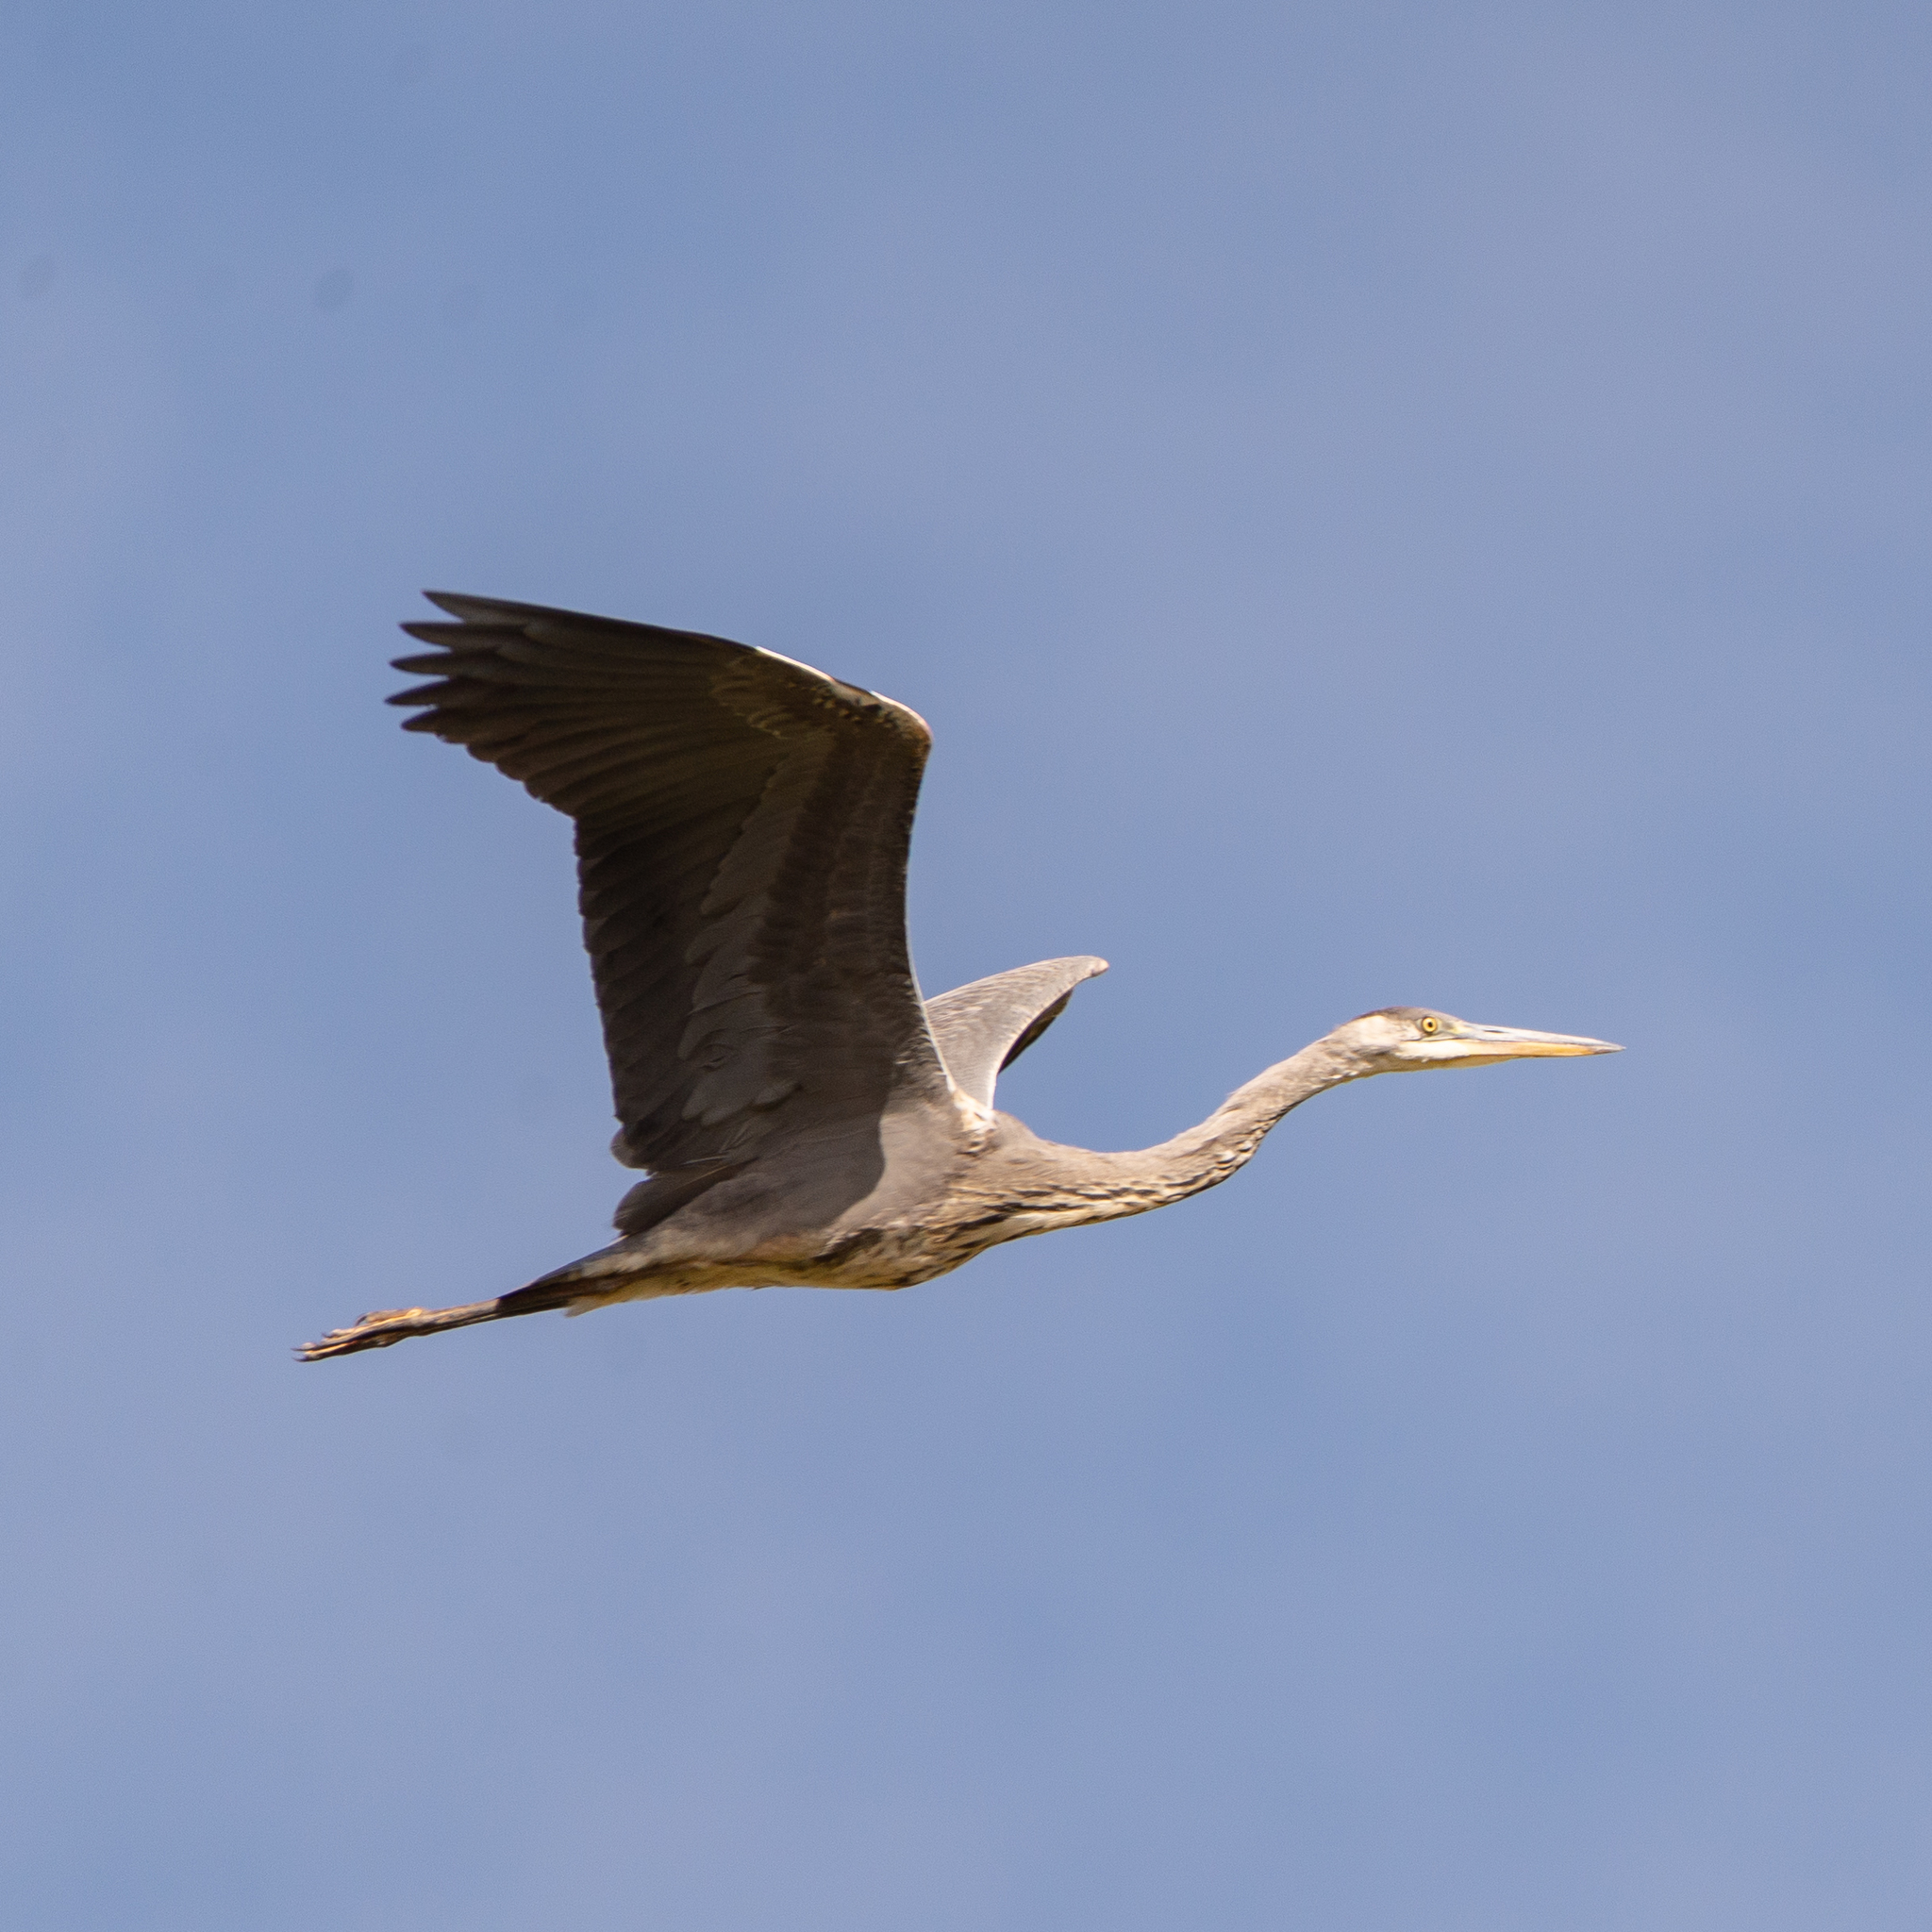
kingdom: Animalia
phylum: Chordata
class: Aves
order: Pelecaniformes
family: Ardeidae
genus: Ardea
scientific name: Ardea cinerea
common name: Grey heron
